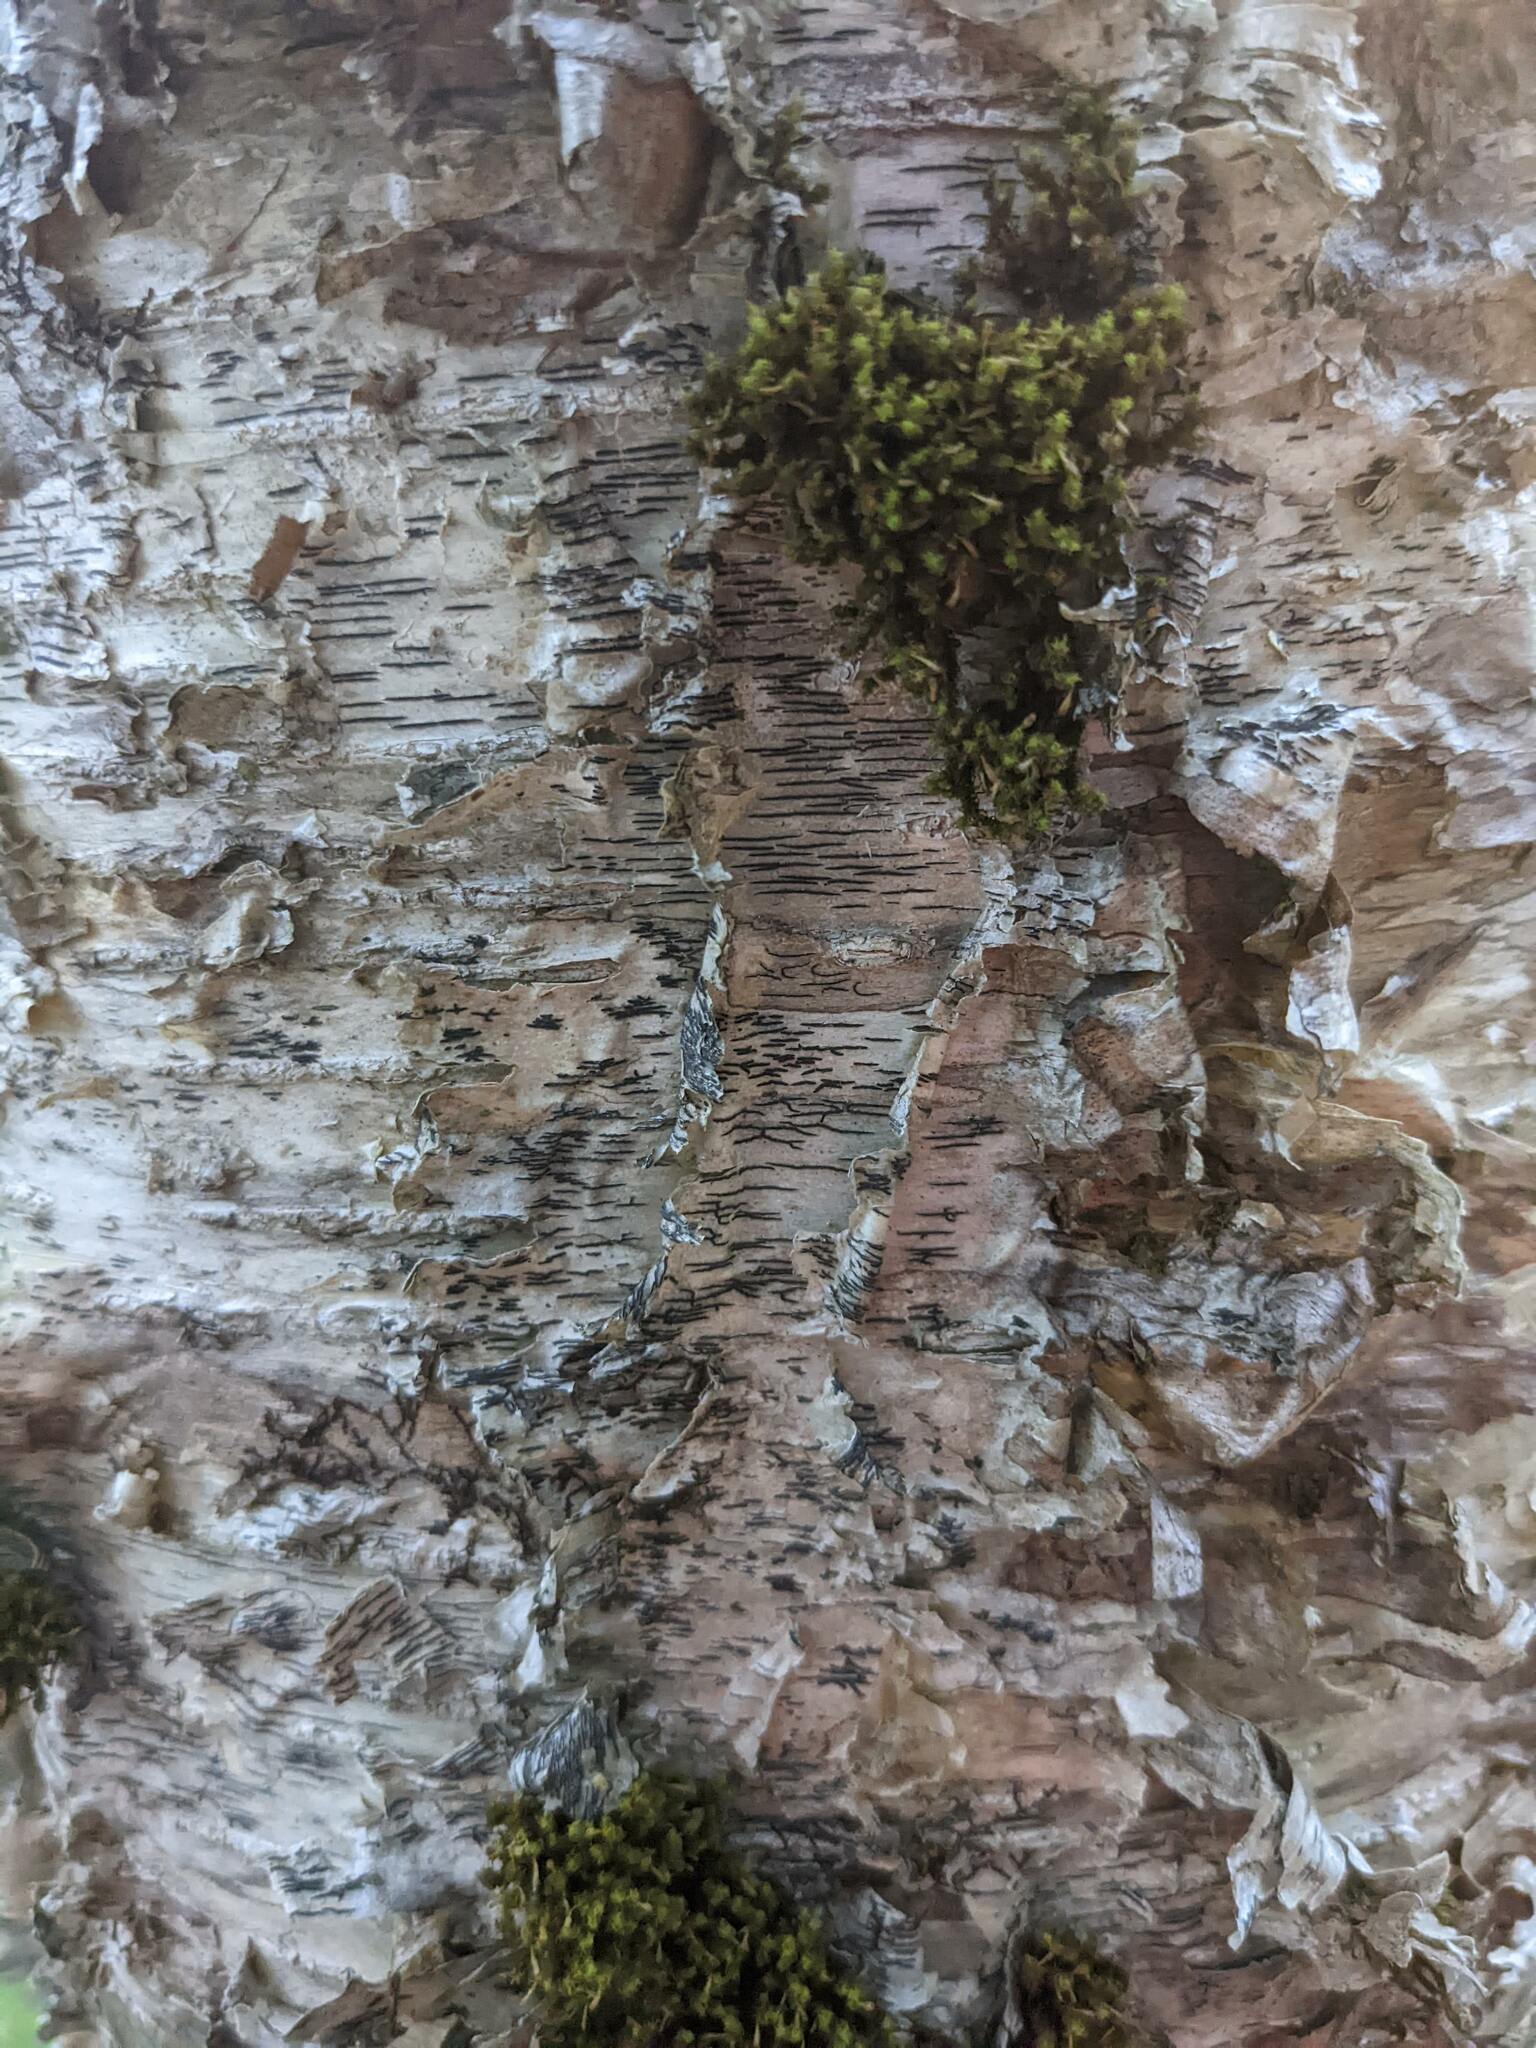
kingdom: Plantae
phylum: Bryophyta
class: Bryopsida
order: Orthotrichales
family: Orthotrichaceae
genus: Ulota
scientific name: Ulota crispa
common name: Crisped pincushion moss
